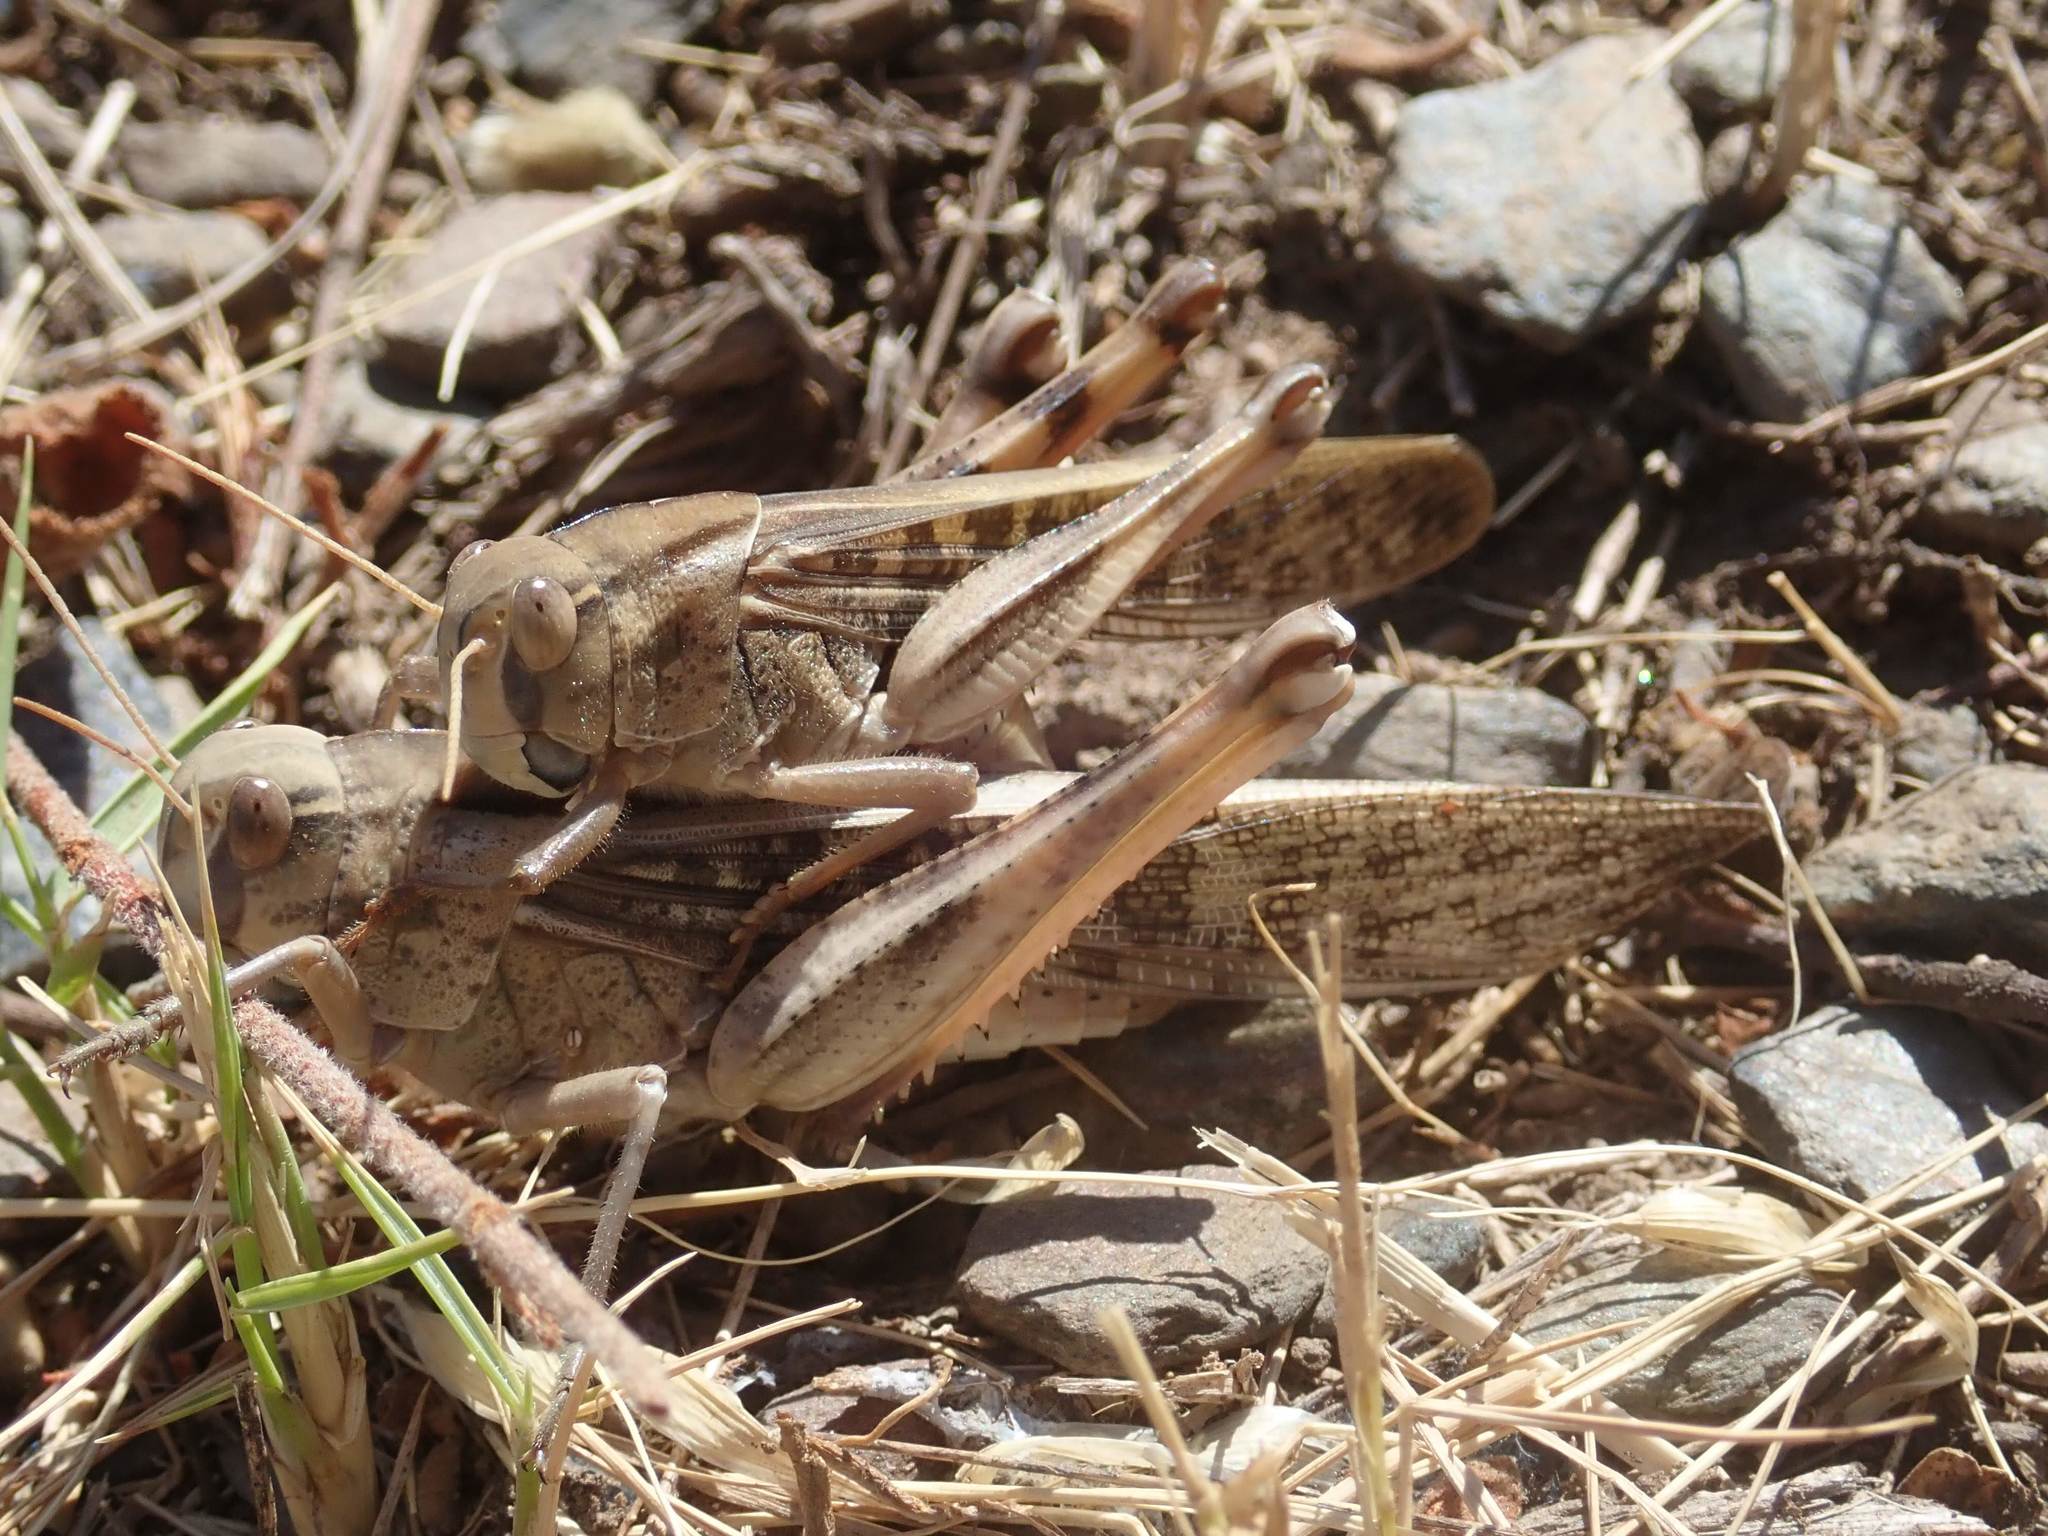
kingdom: Animalia
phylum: Arthropoda
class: Insecta
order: Orthoptera
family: Acrididae
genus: Locusta
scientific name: Locusta migratoria
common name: Migratory locust
